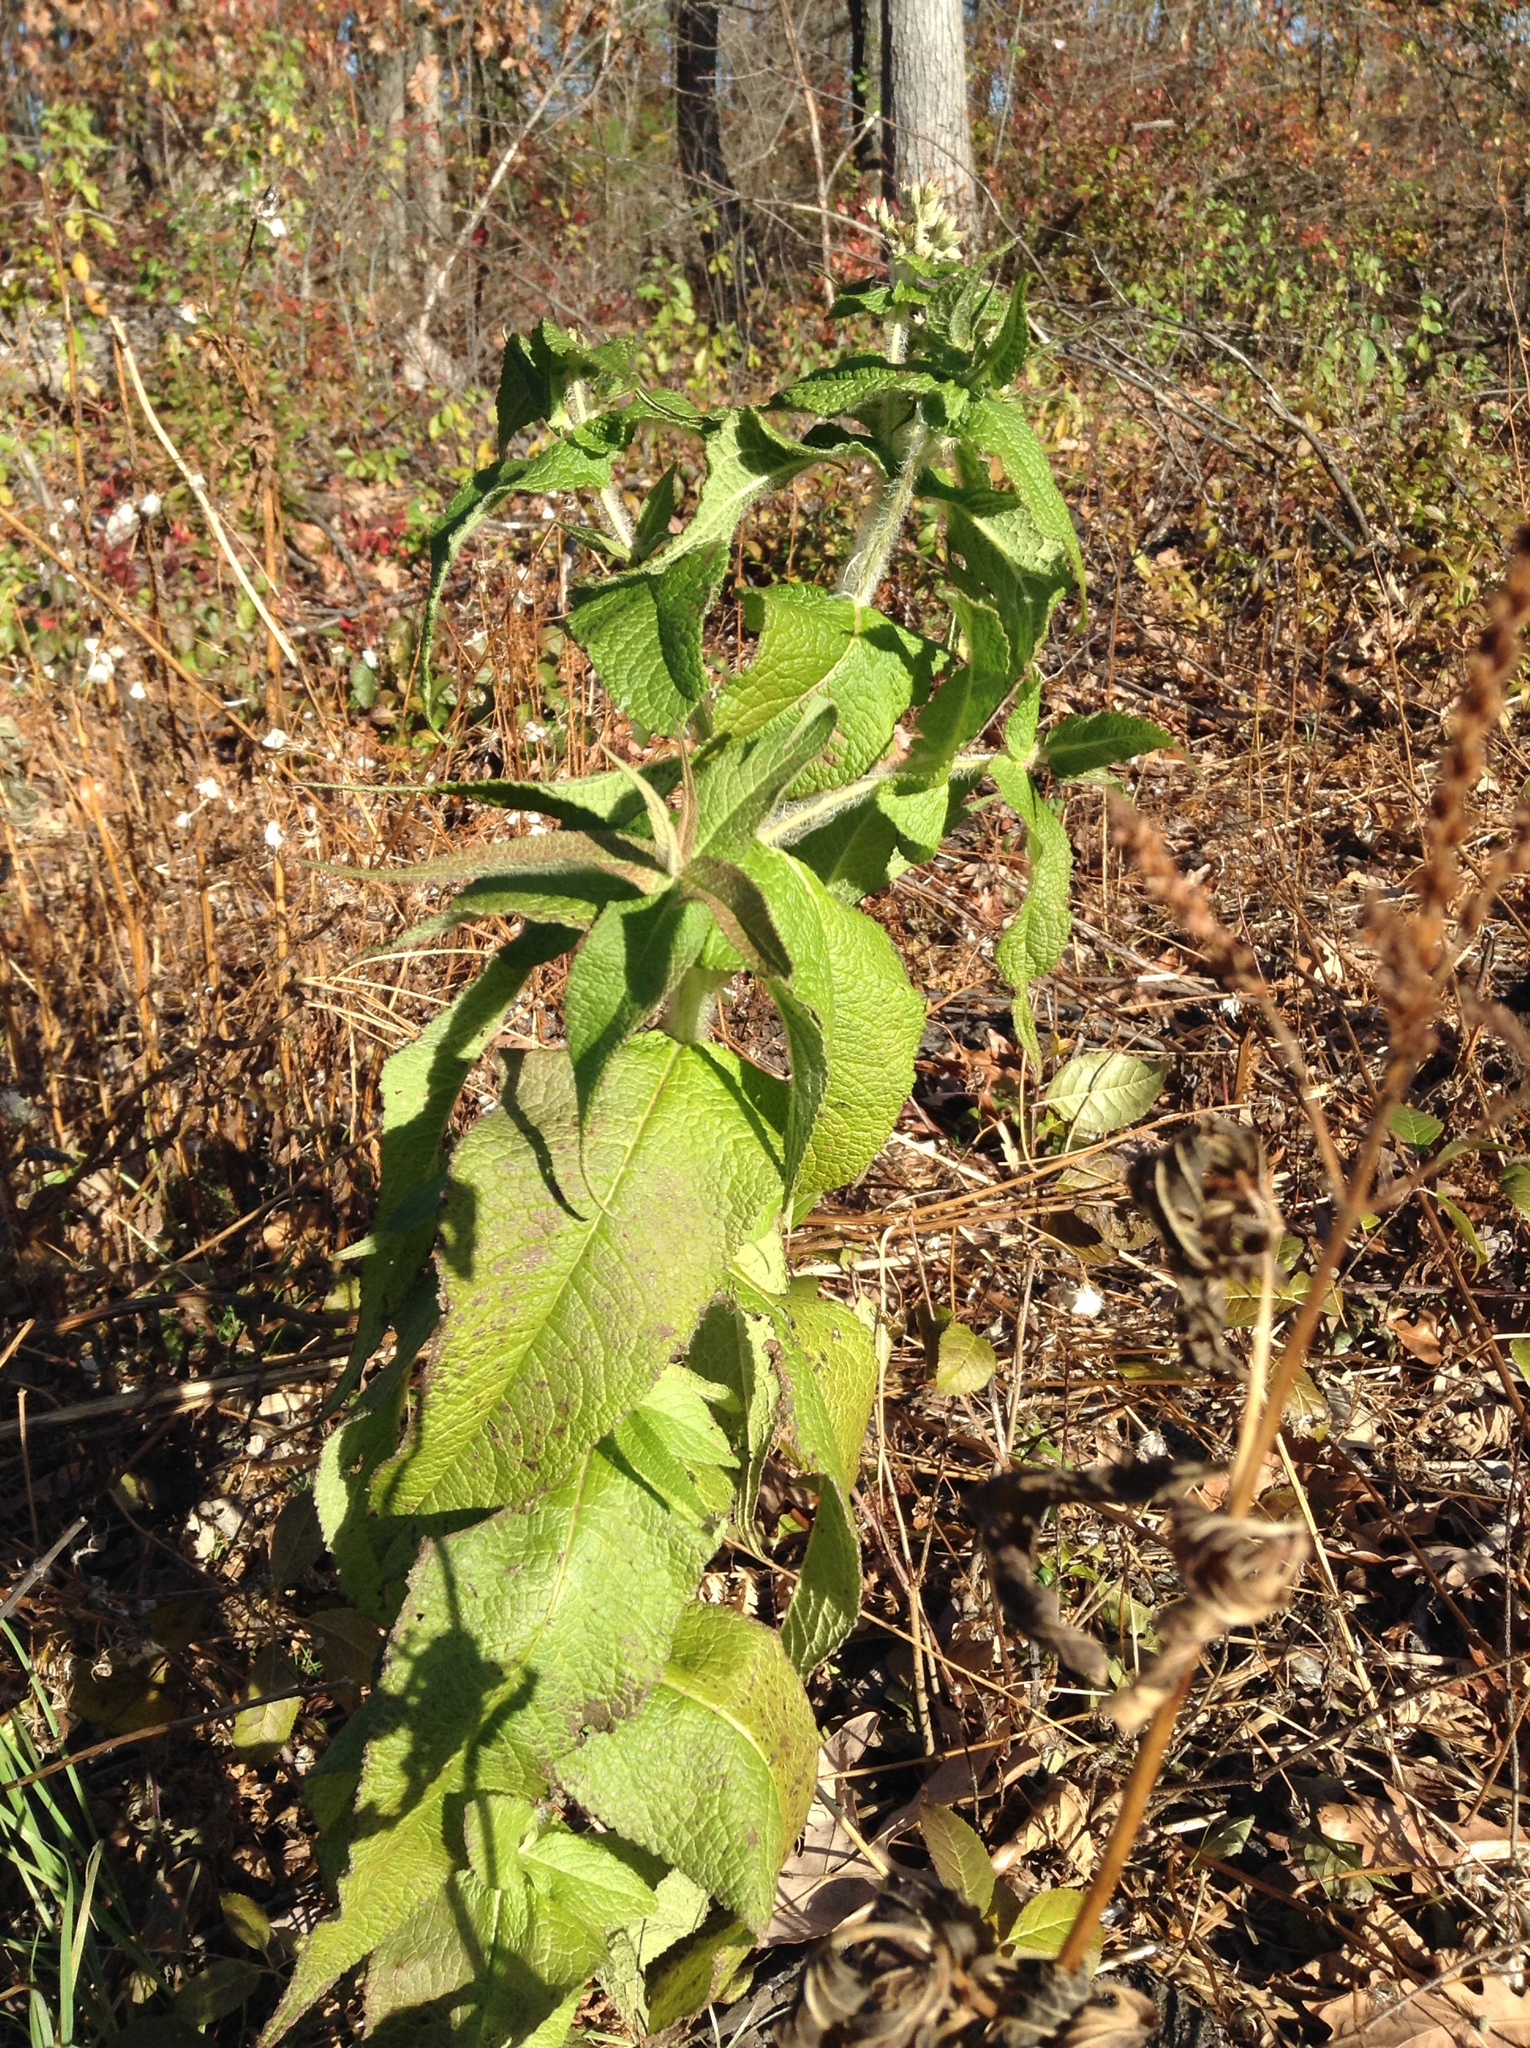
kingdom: Plantae
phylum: Tracheophyta
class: Magnoliopsida
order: Asterales
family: Asteraceae
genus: Eupatorium
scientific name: Eupatorium perfoliatum
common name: Boneset
